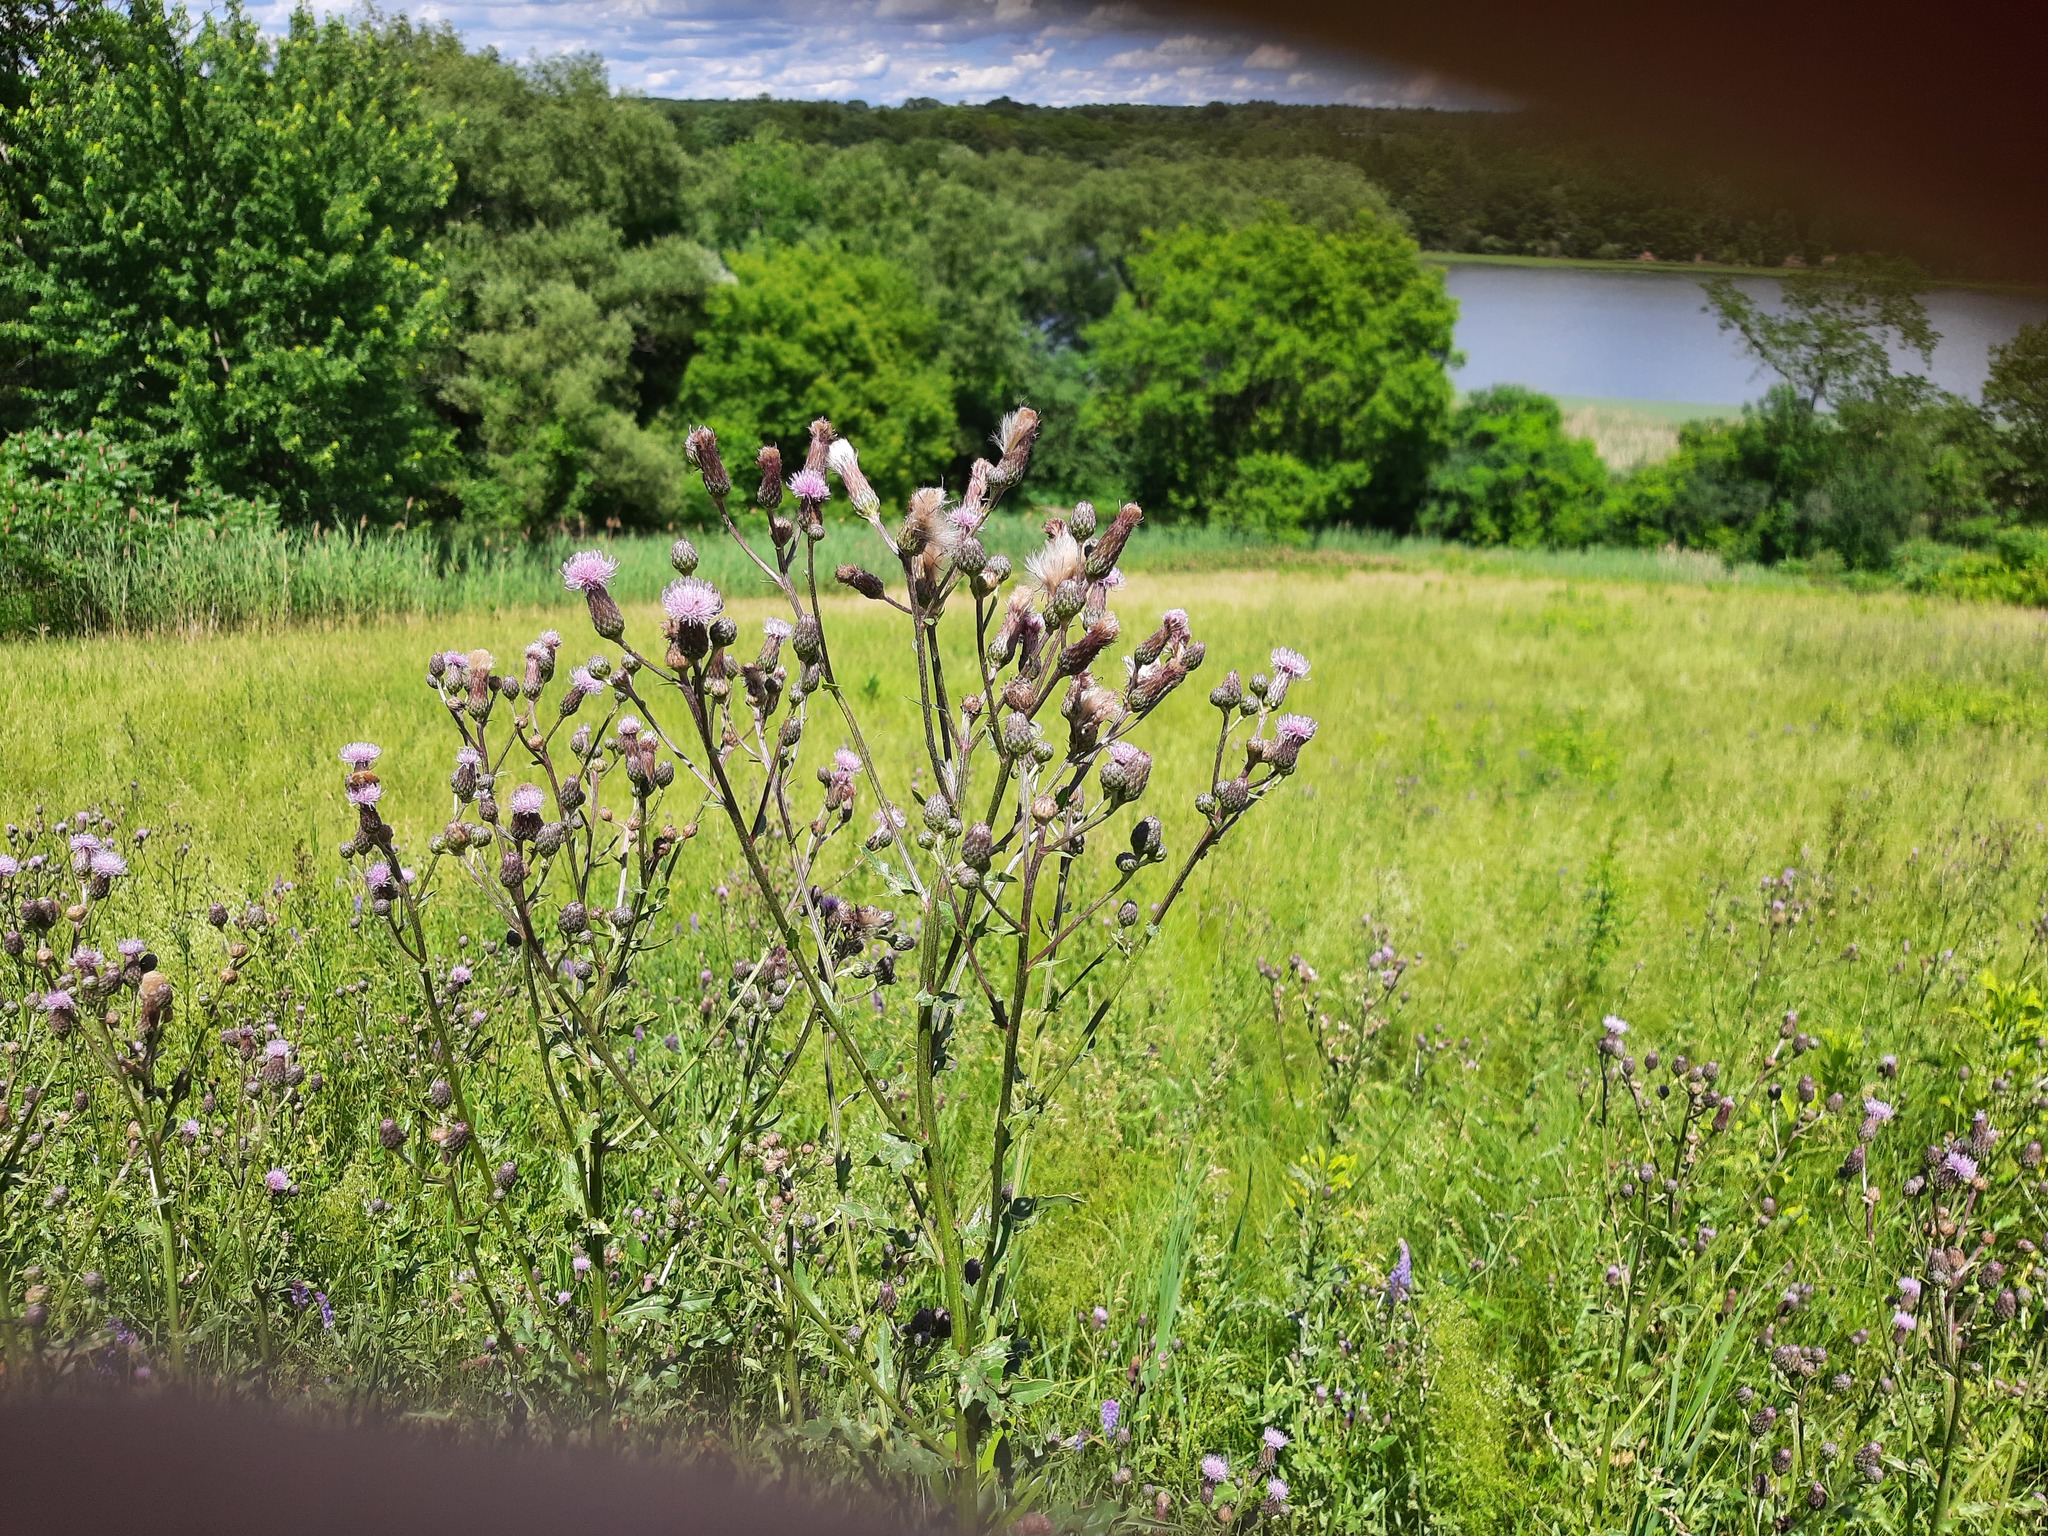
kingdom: Plantae
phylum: Tracheophyta
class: Magnoliopsida
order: Asterales
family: Asteraceae
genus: Cirsium
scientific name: Cirsium arvense
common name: Creeping thistle
